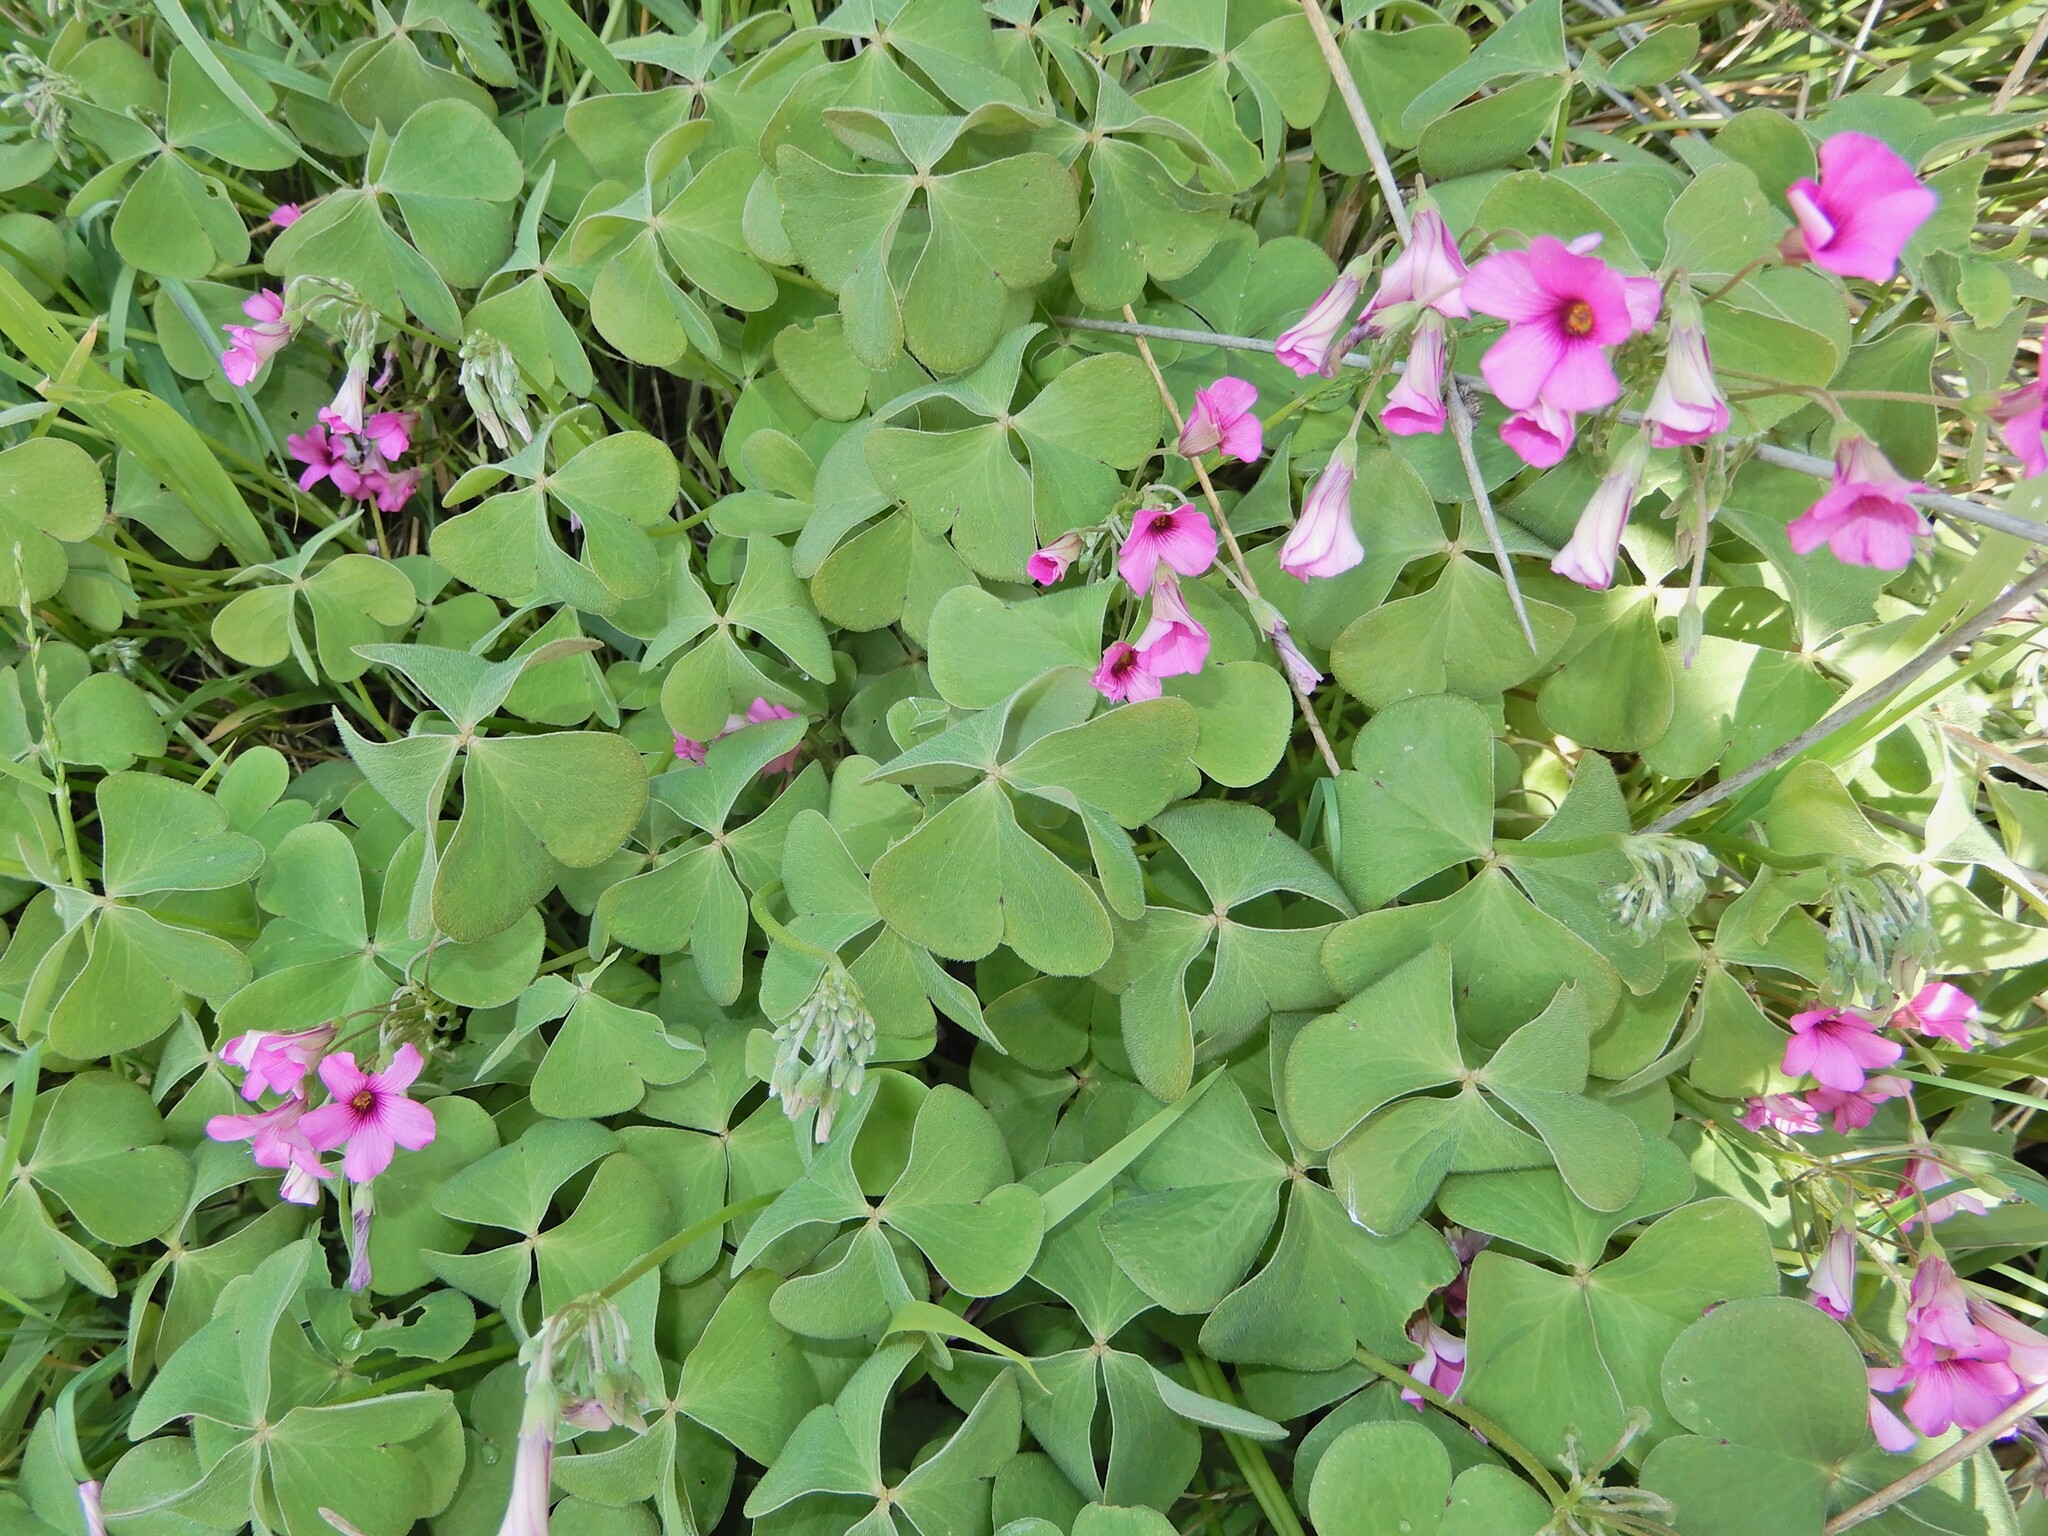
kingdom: Plantae
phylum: Tracheophyta
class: Magnoliopsida
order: Oxalidales
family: Oxalidaceae
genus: Oxalis
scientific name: Oxalis articulata
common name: Pink-sorrel
